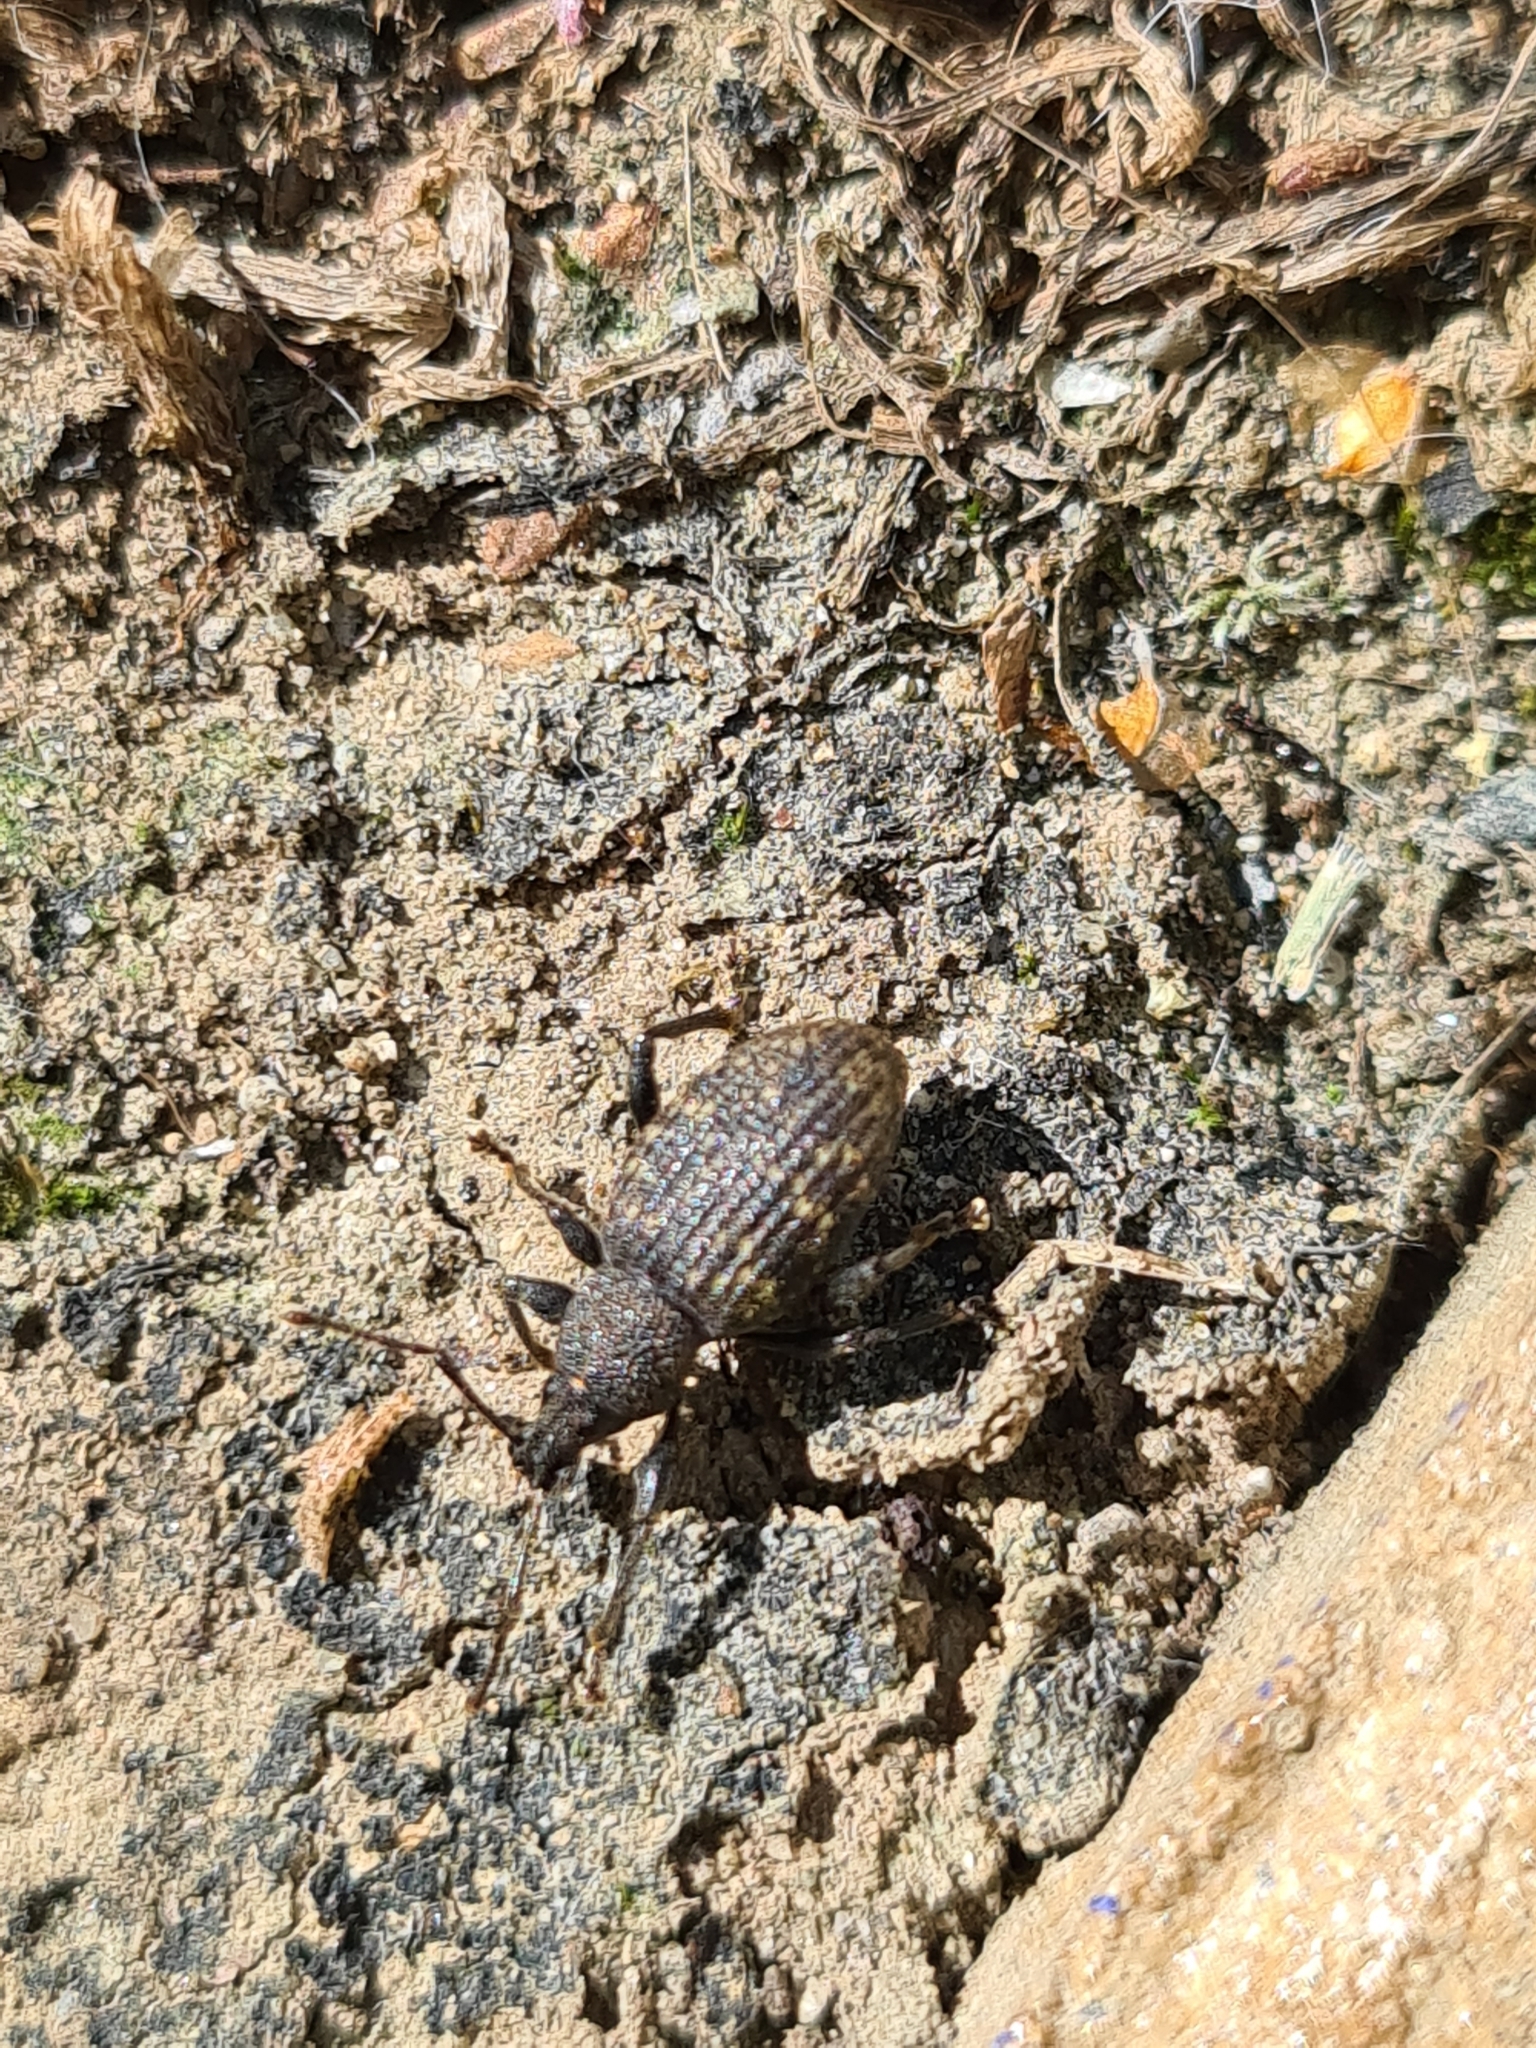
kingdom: Animalia
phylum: Arthropoda
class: Insecta
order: Coleoptera
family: Curculionidae
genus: Otiorhynchus
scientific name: Otiorhynchus sulcatus
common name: Black vine weevil
